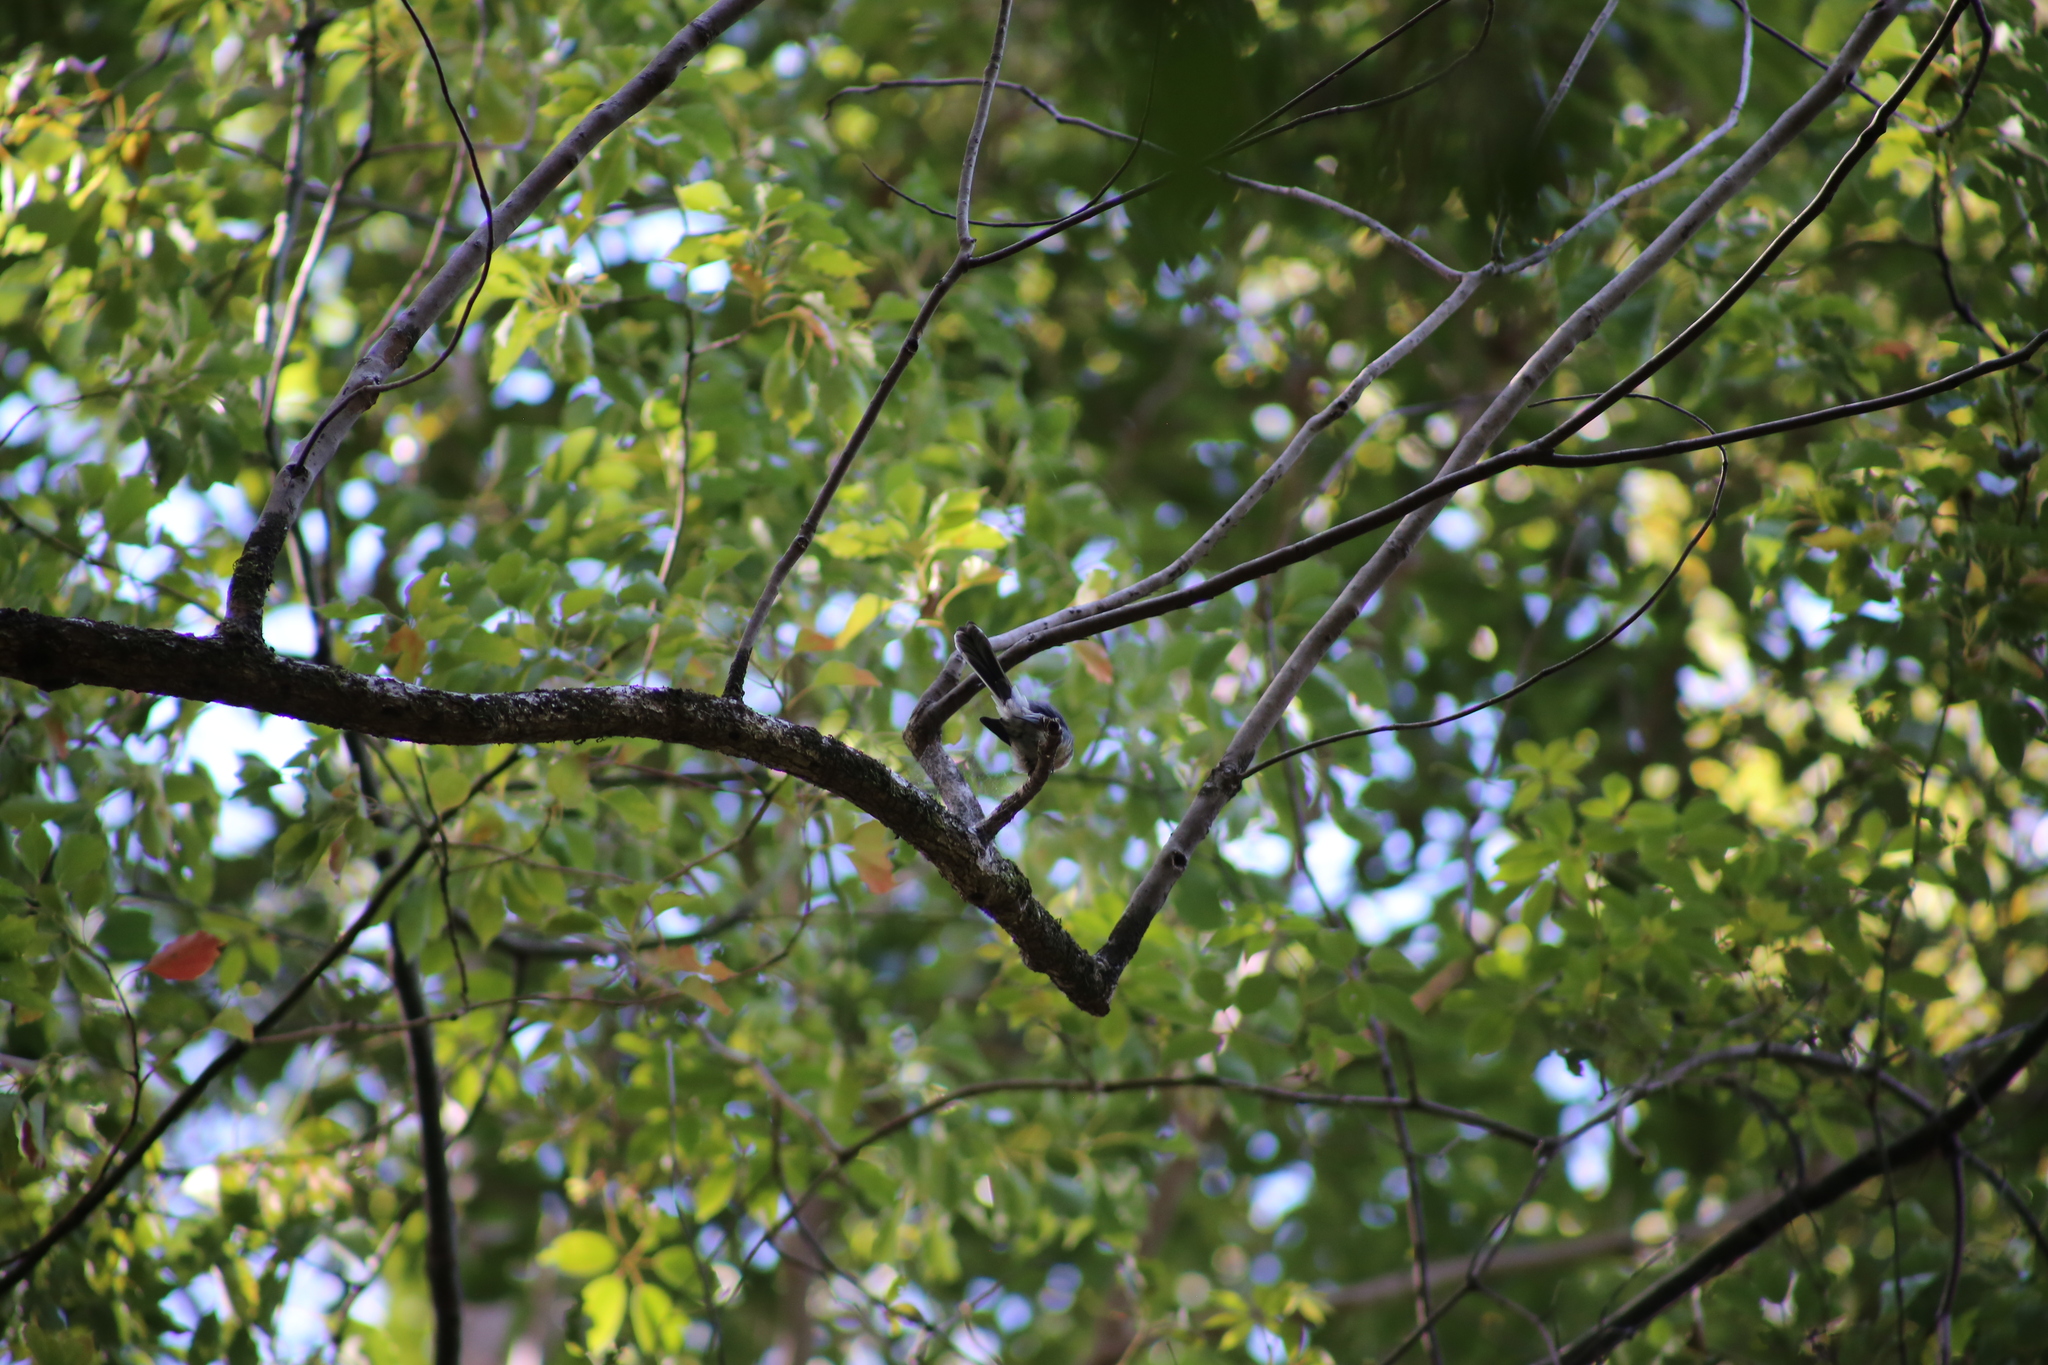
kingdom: Animalia
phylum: Chordata
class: Aves
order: Passeriformes
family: Rhipiduridae
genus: Rhipidura
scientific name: Rhipidura albiscapa
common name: Grey fantail
